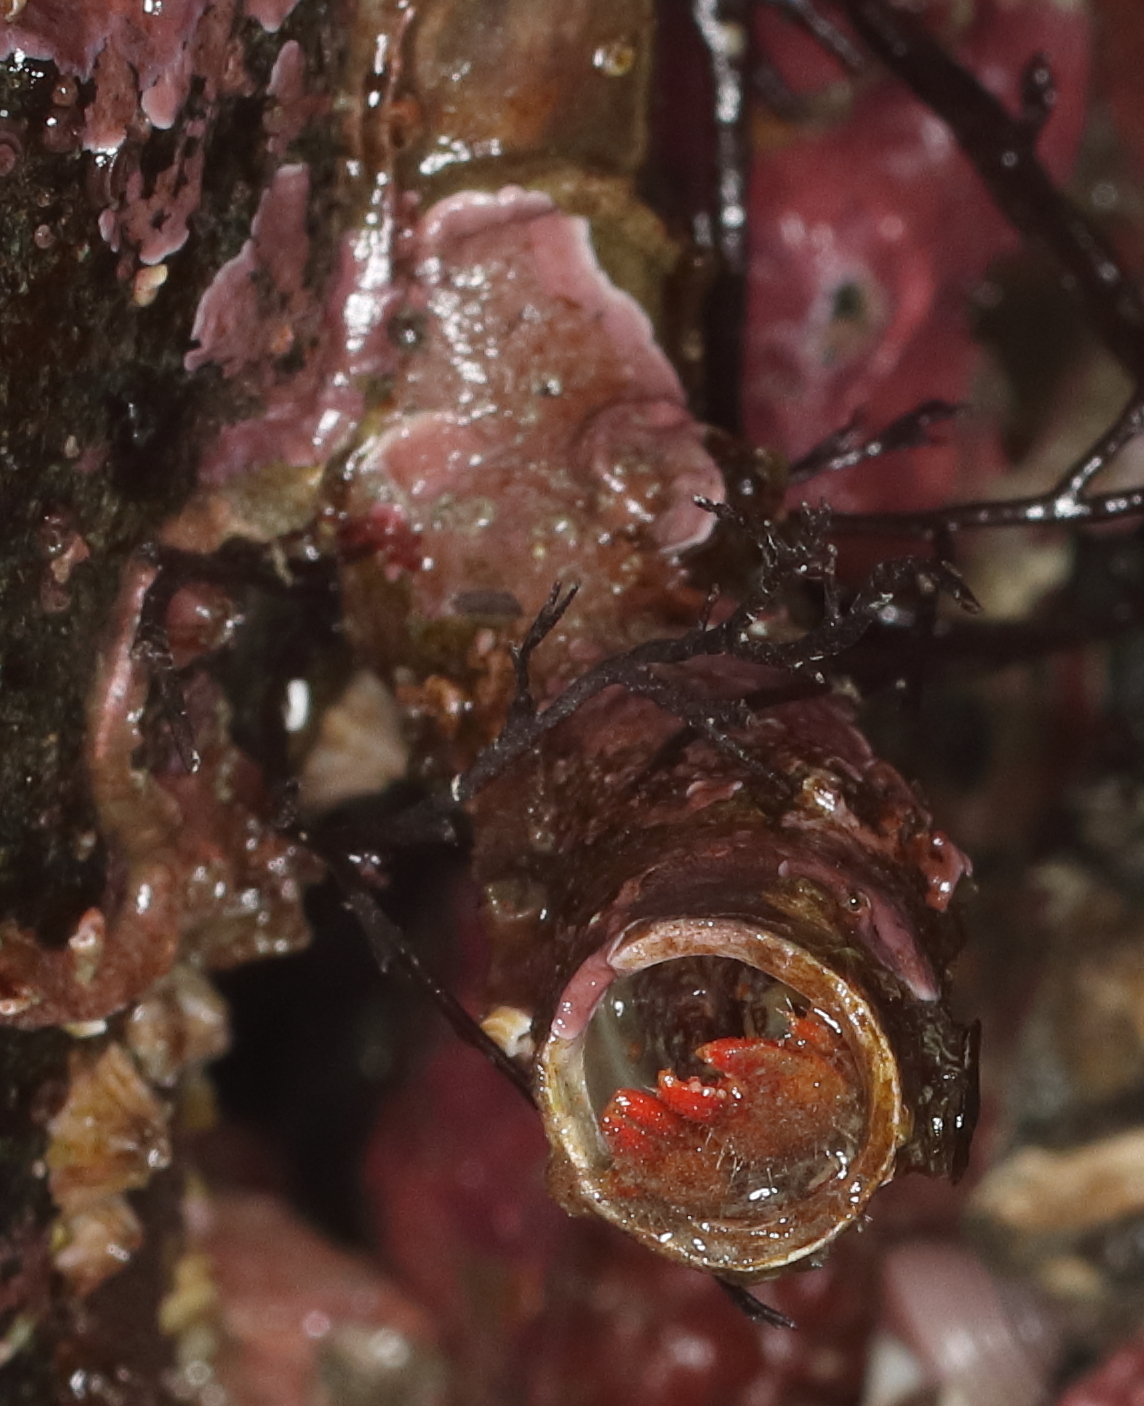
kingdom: Animalia
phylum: Arthropoda
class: Malacostraca
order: Decapoda
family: Paguridae
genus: Discorsopagurus
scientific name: Discorsopagurus schmitti
